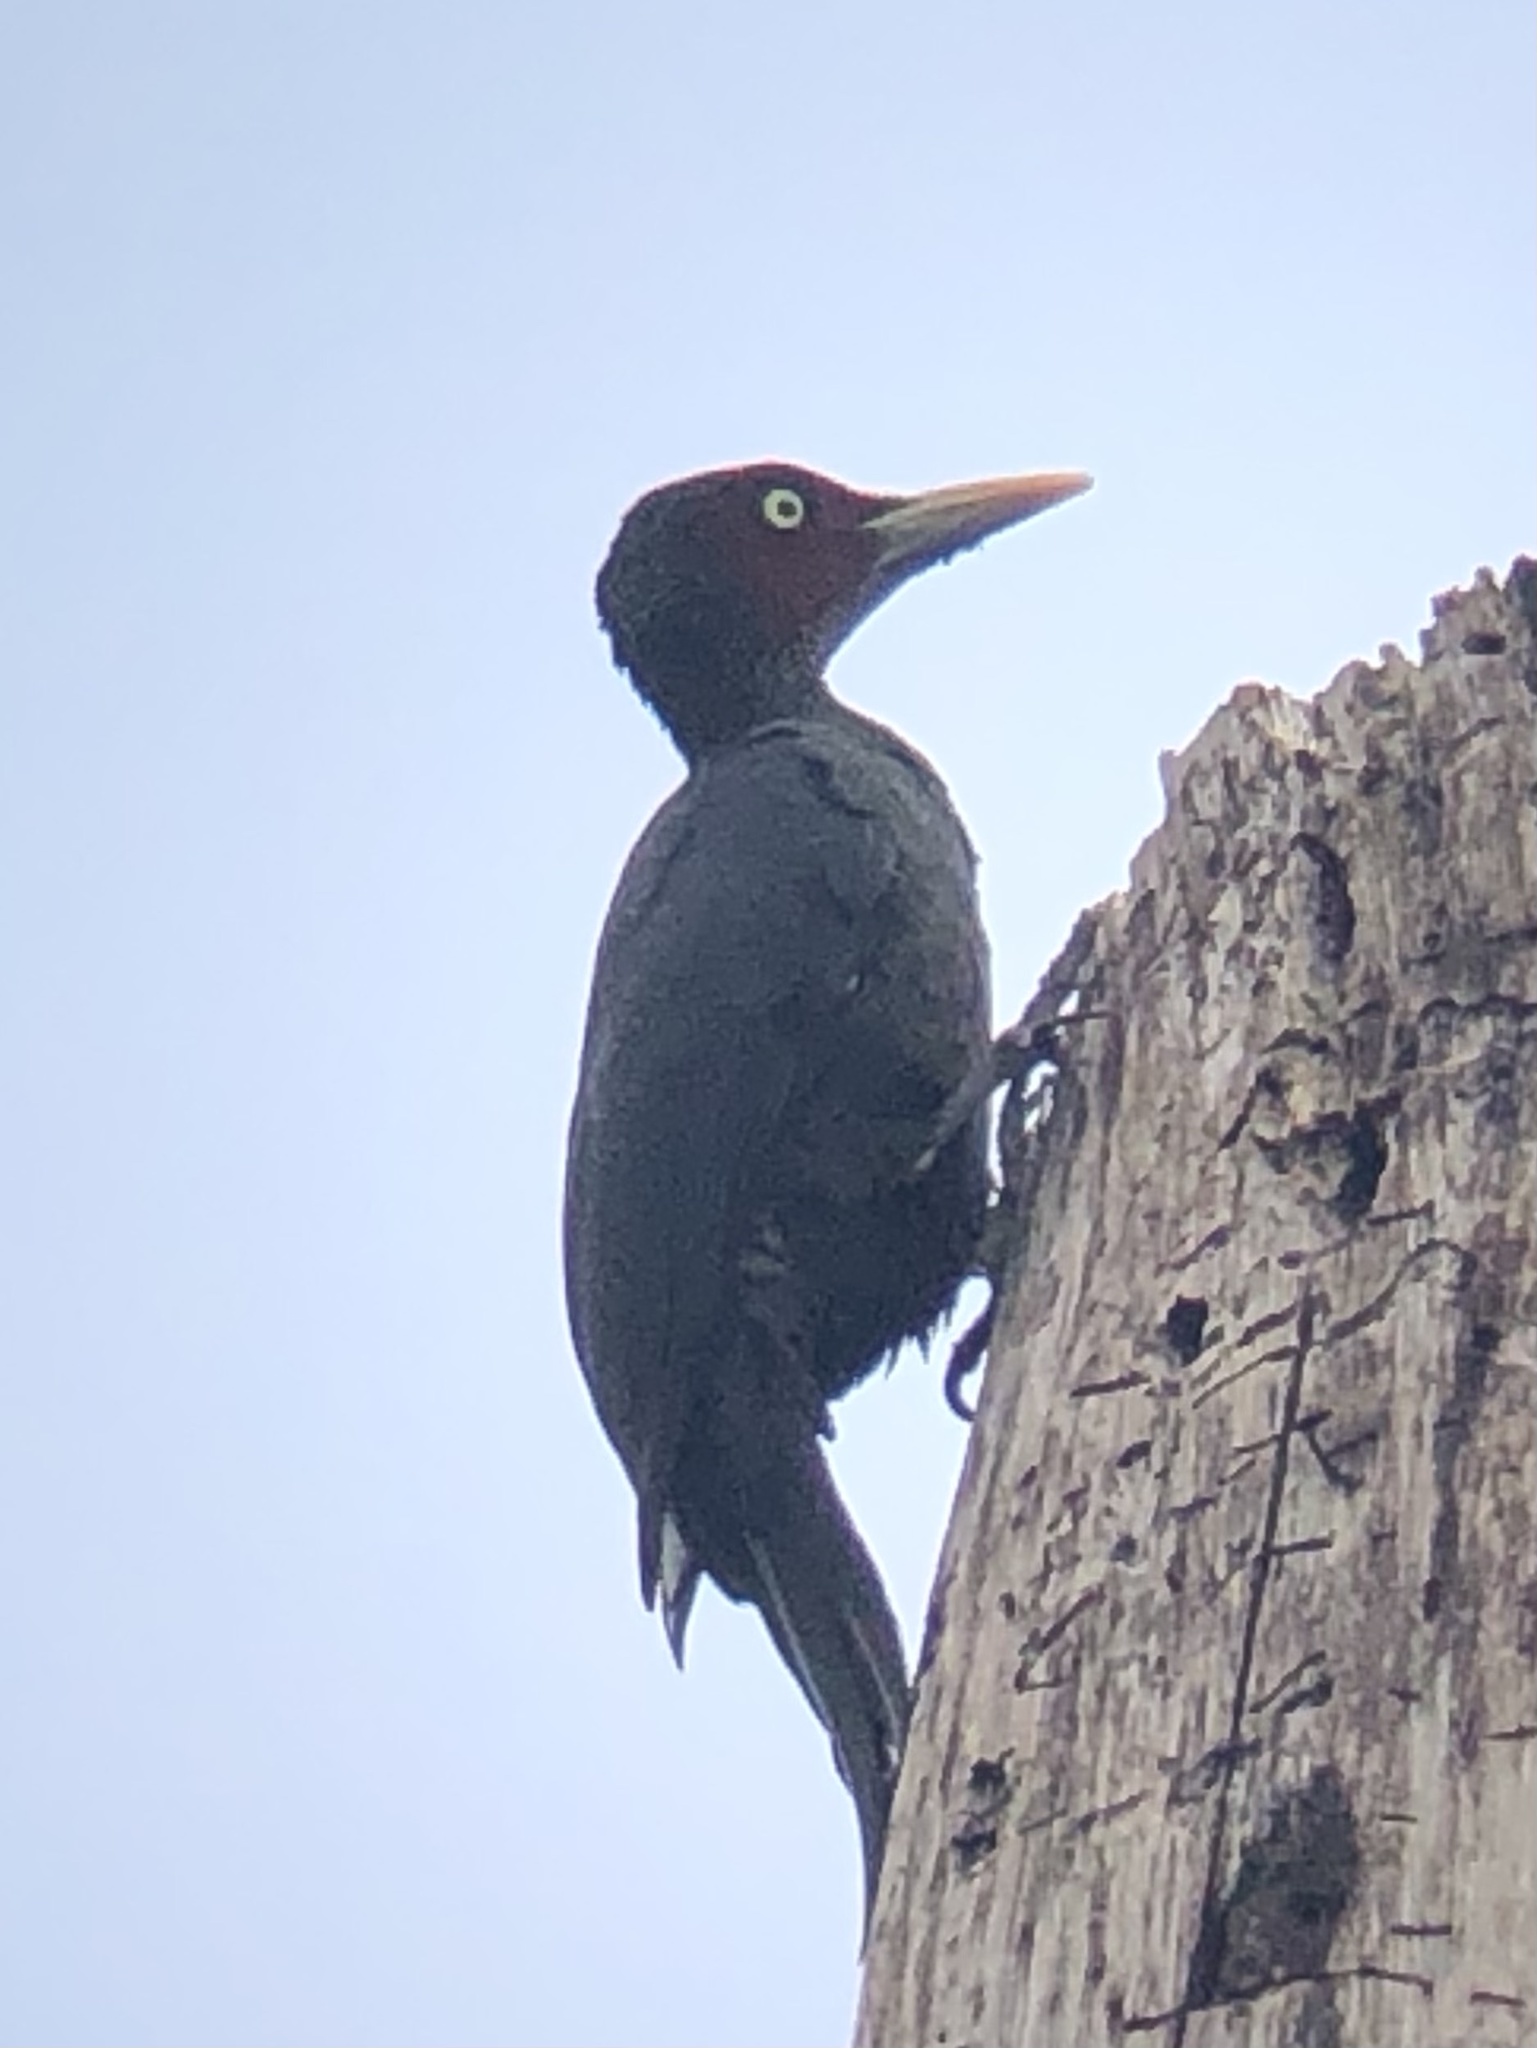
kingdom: Animalia
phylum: Chordata
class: Aves
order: Piciformes
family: Picidae
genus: Mulleripicus
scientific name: Mulleripicus funebris
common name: Sooty woodpecker
